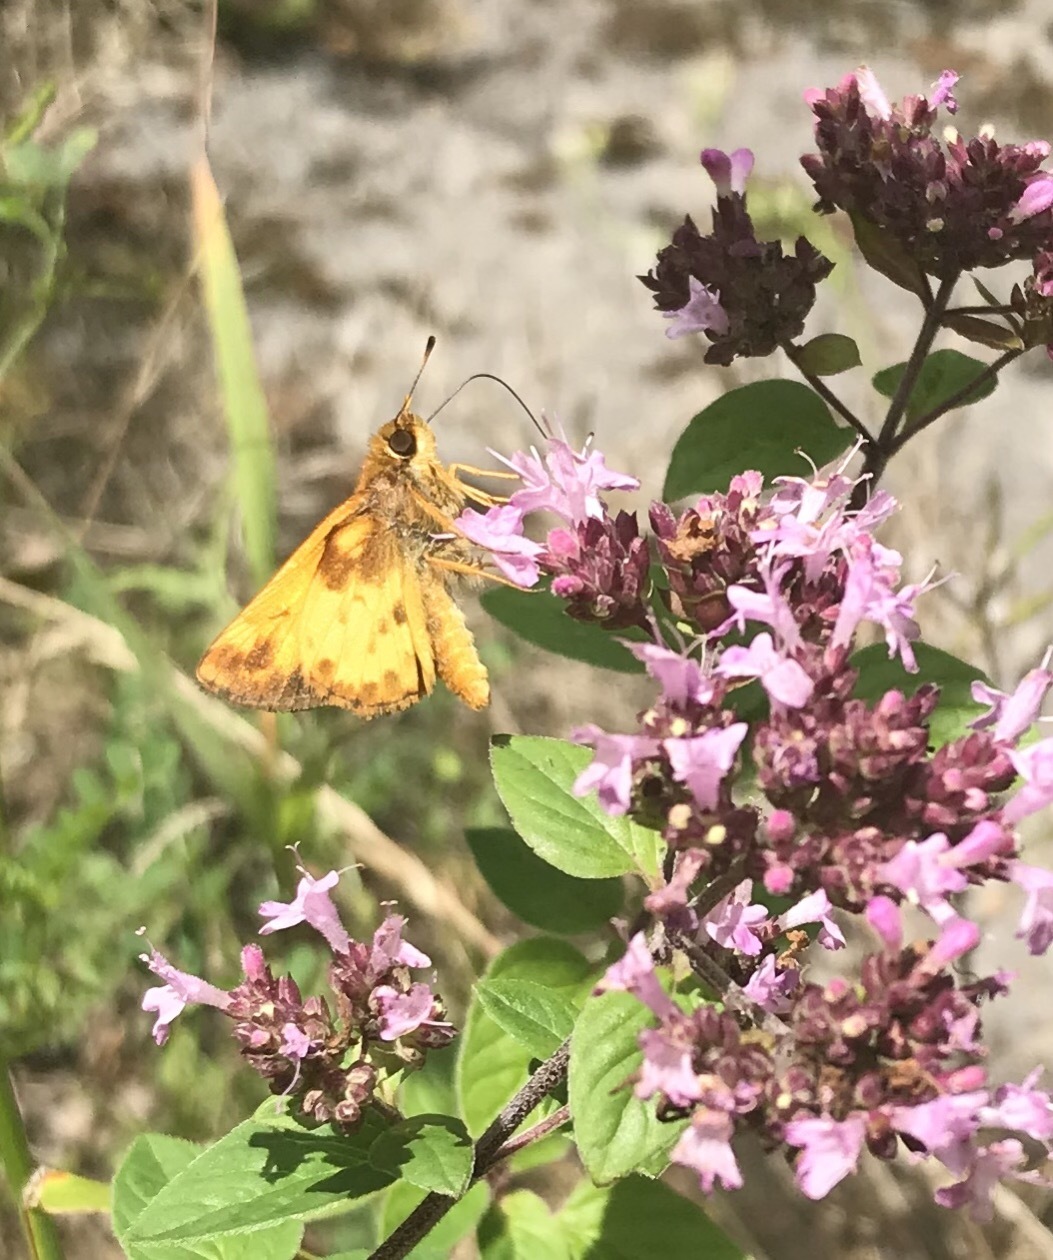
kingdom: Animalia
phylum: Arthropoda
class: Insecta
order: Lepidoptera
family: Hesperiidae
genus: Lon
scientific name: Lon zabulon
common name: Zabulon skipper
